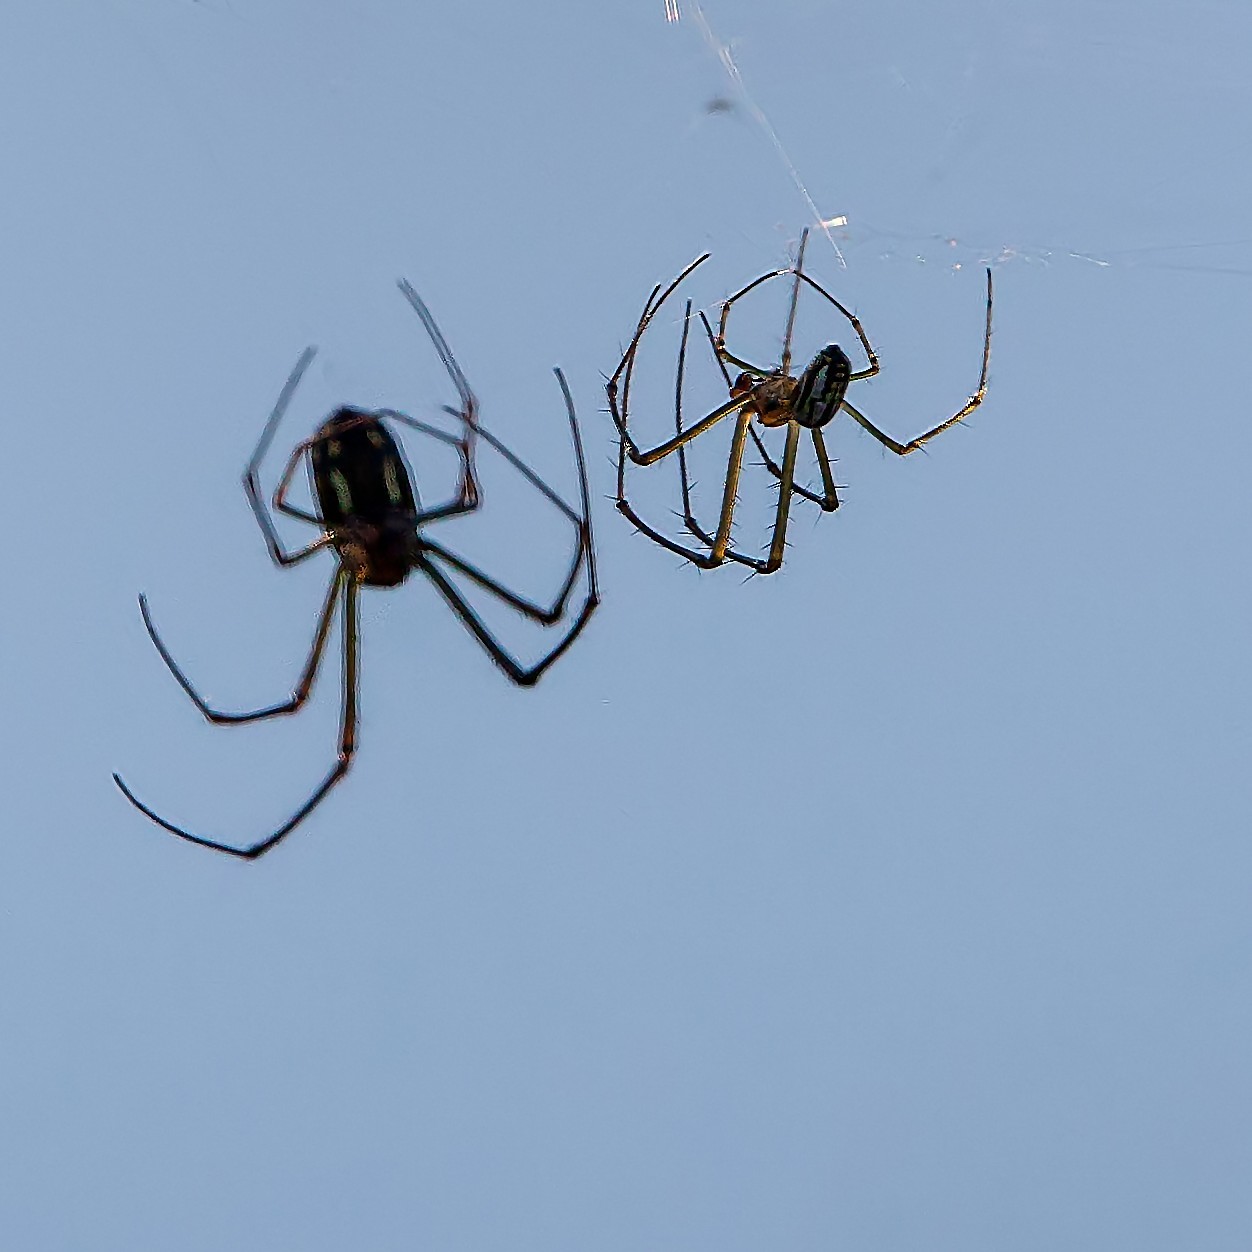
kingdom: Animalia
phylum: Arthropoda
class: Arachnida
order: Araneae
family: Tetragnathidae
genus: Leucauge
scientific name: Leucauge argyra
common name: Longjawed orb weavers
